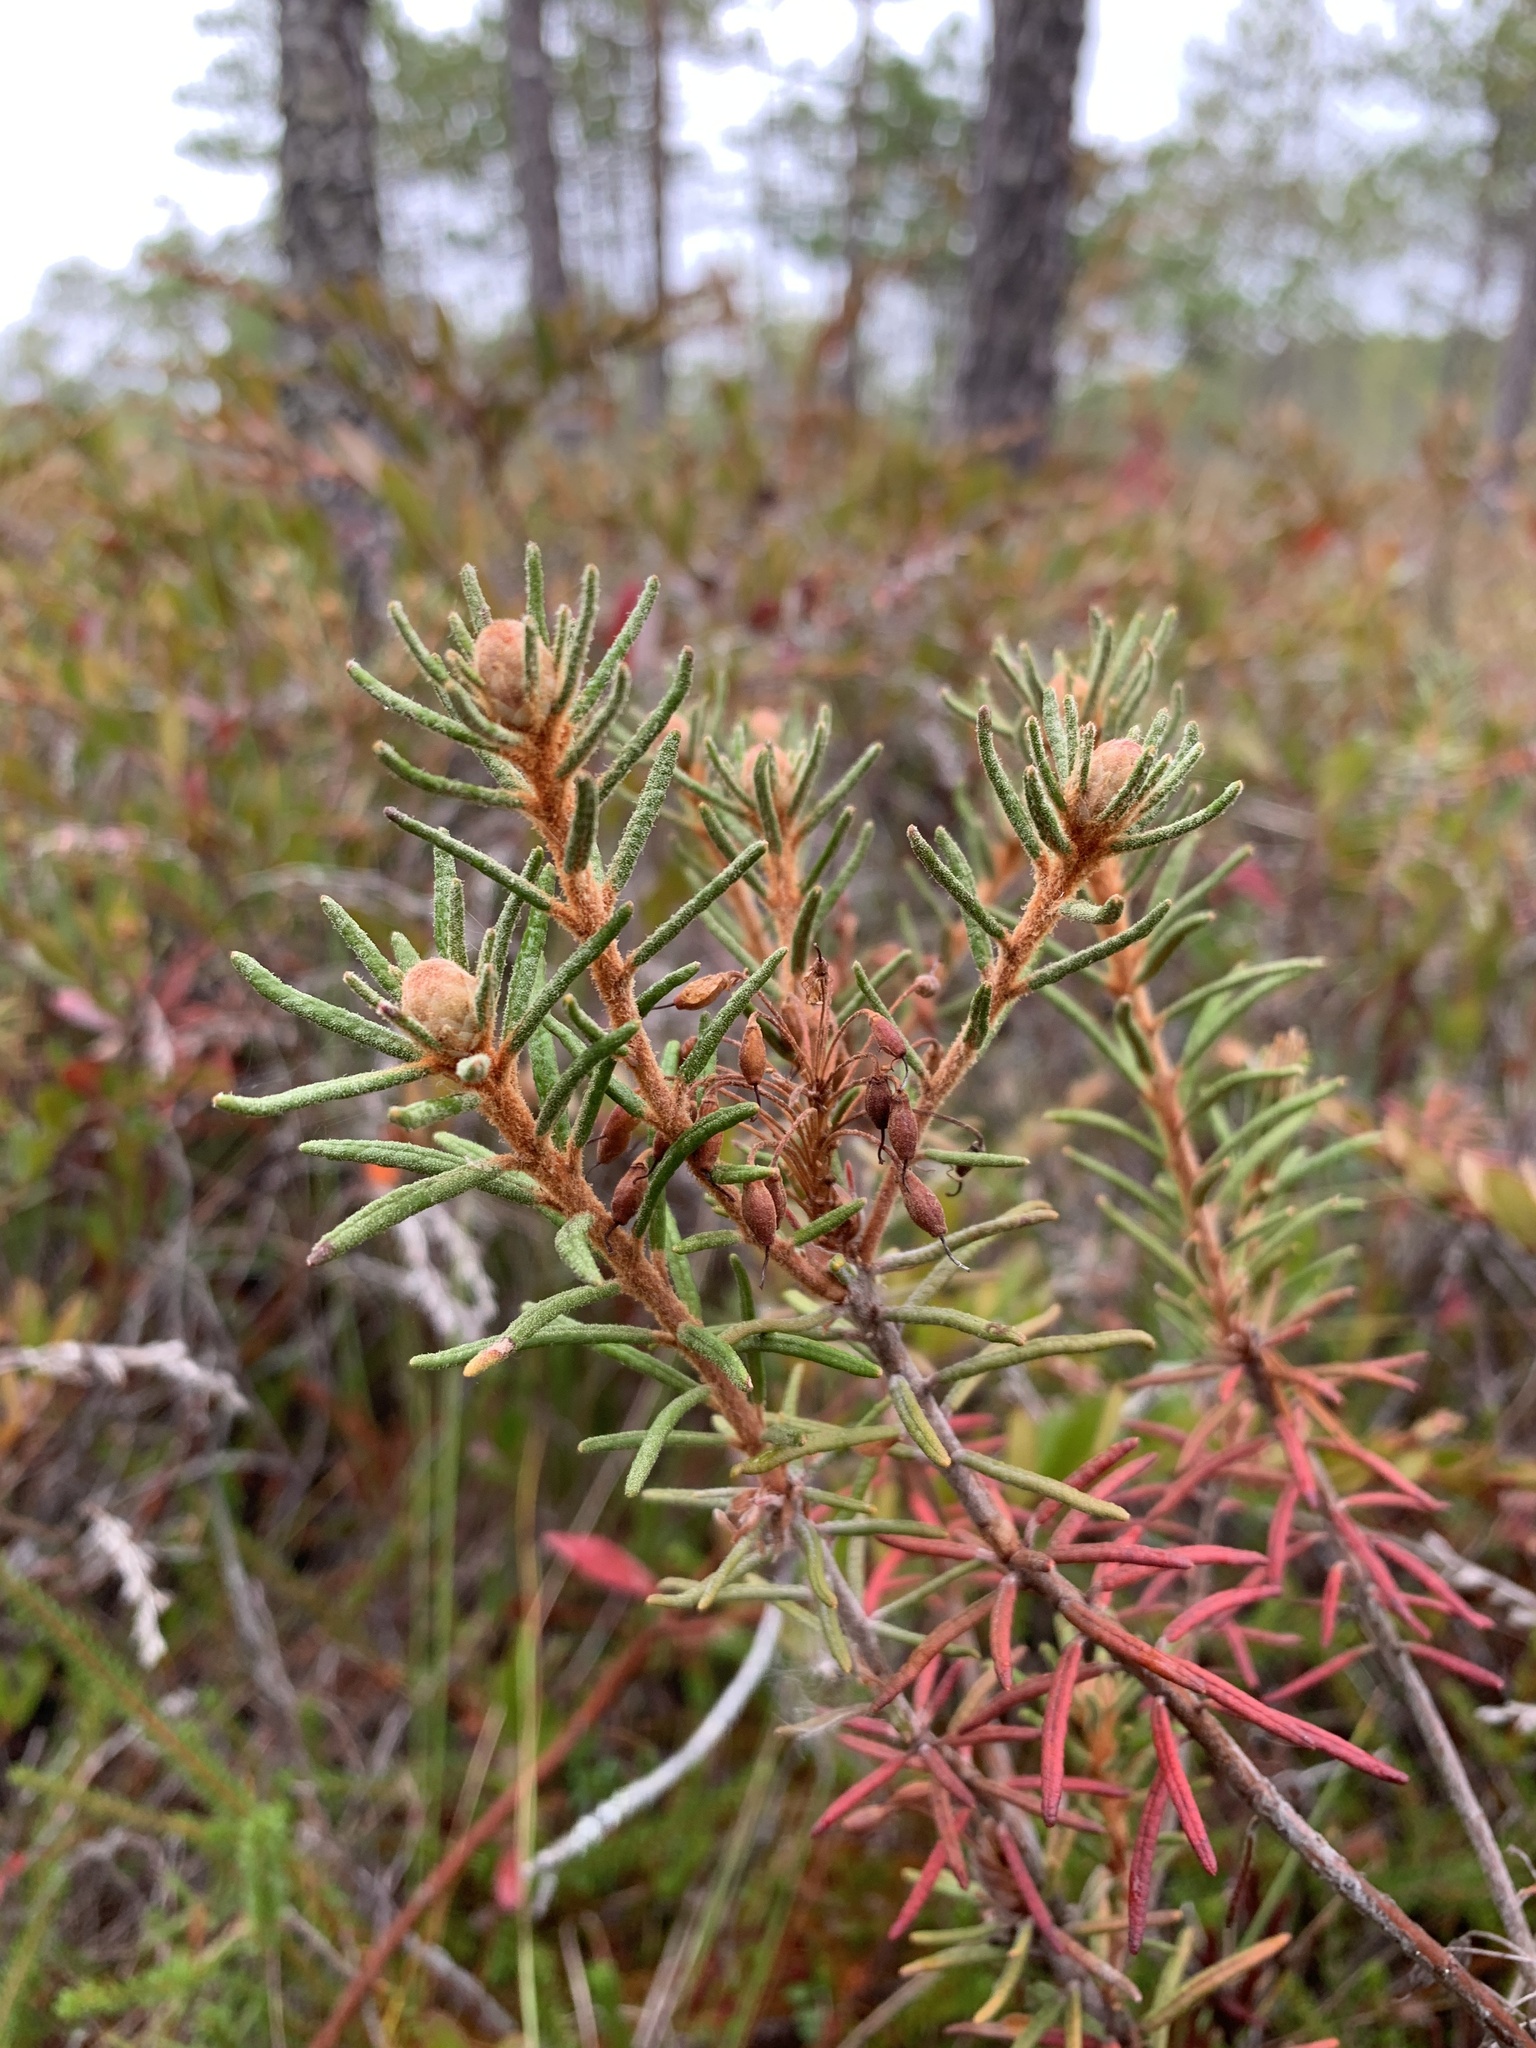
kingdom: Plantae
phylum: Tracheophyta
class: Magnoliopsida
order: Ericales
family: Ericaceae
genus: Rhododendron
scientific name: Rhododendron tomentosum
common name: Marsh labrador tea
